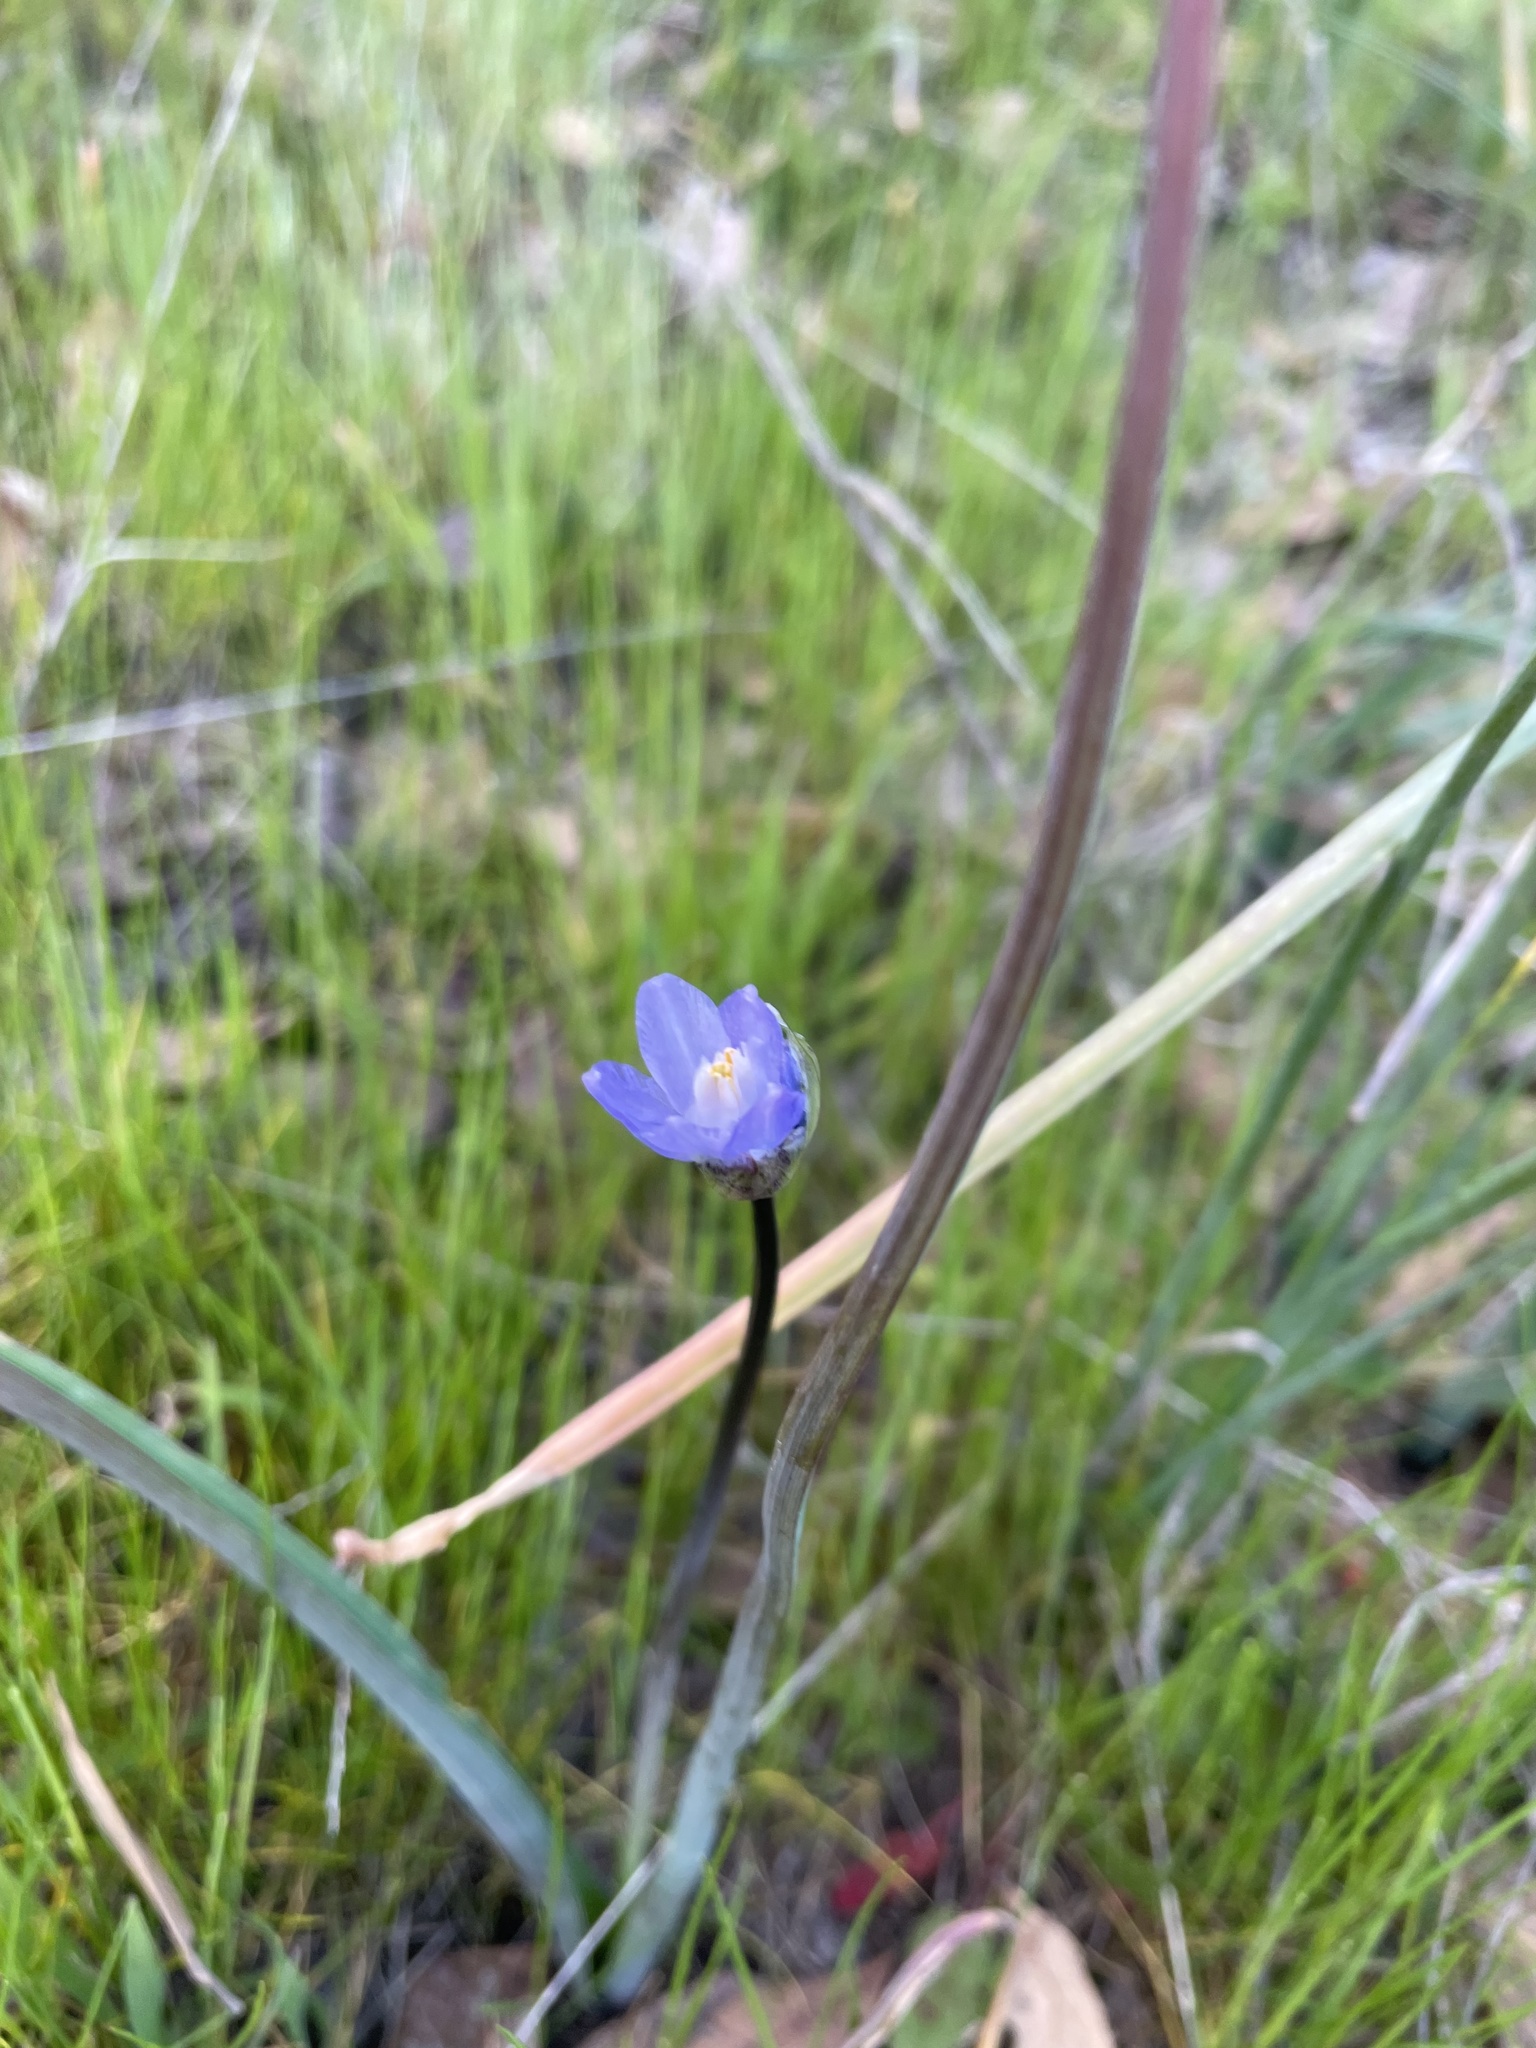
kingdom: Plantae
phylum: Tracheophyta
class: Liliopsida
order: Asparagales
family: Asparagaceae
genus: Dipterostemon
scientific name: Dipterostemon capitatus
